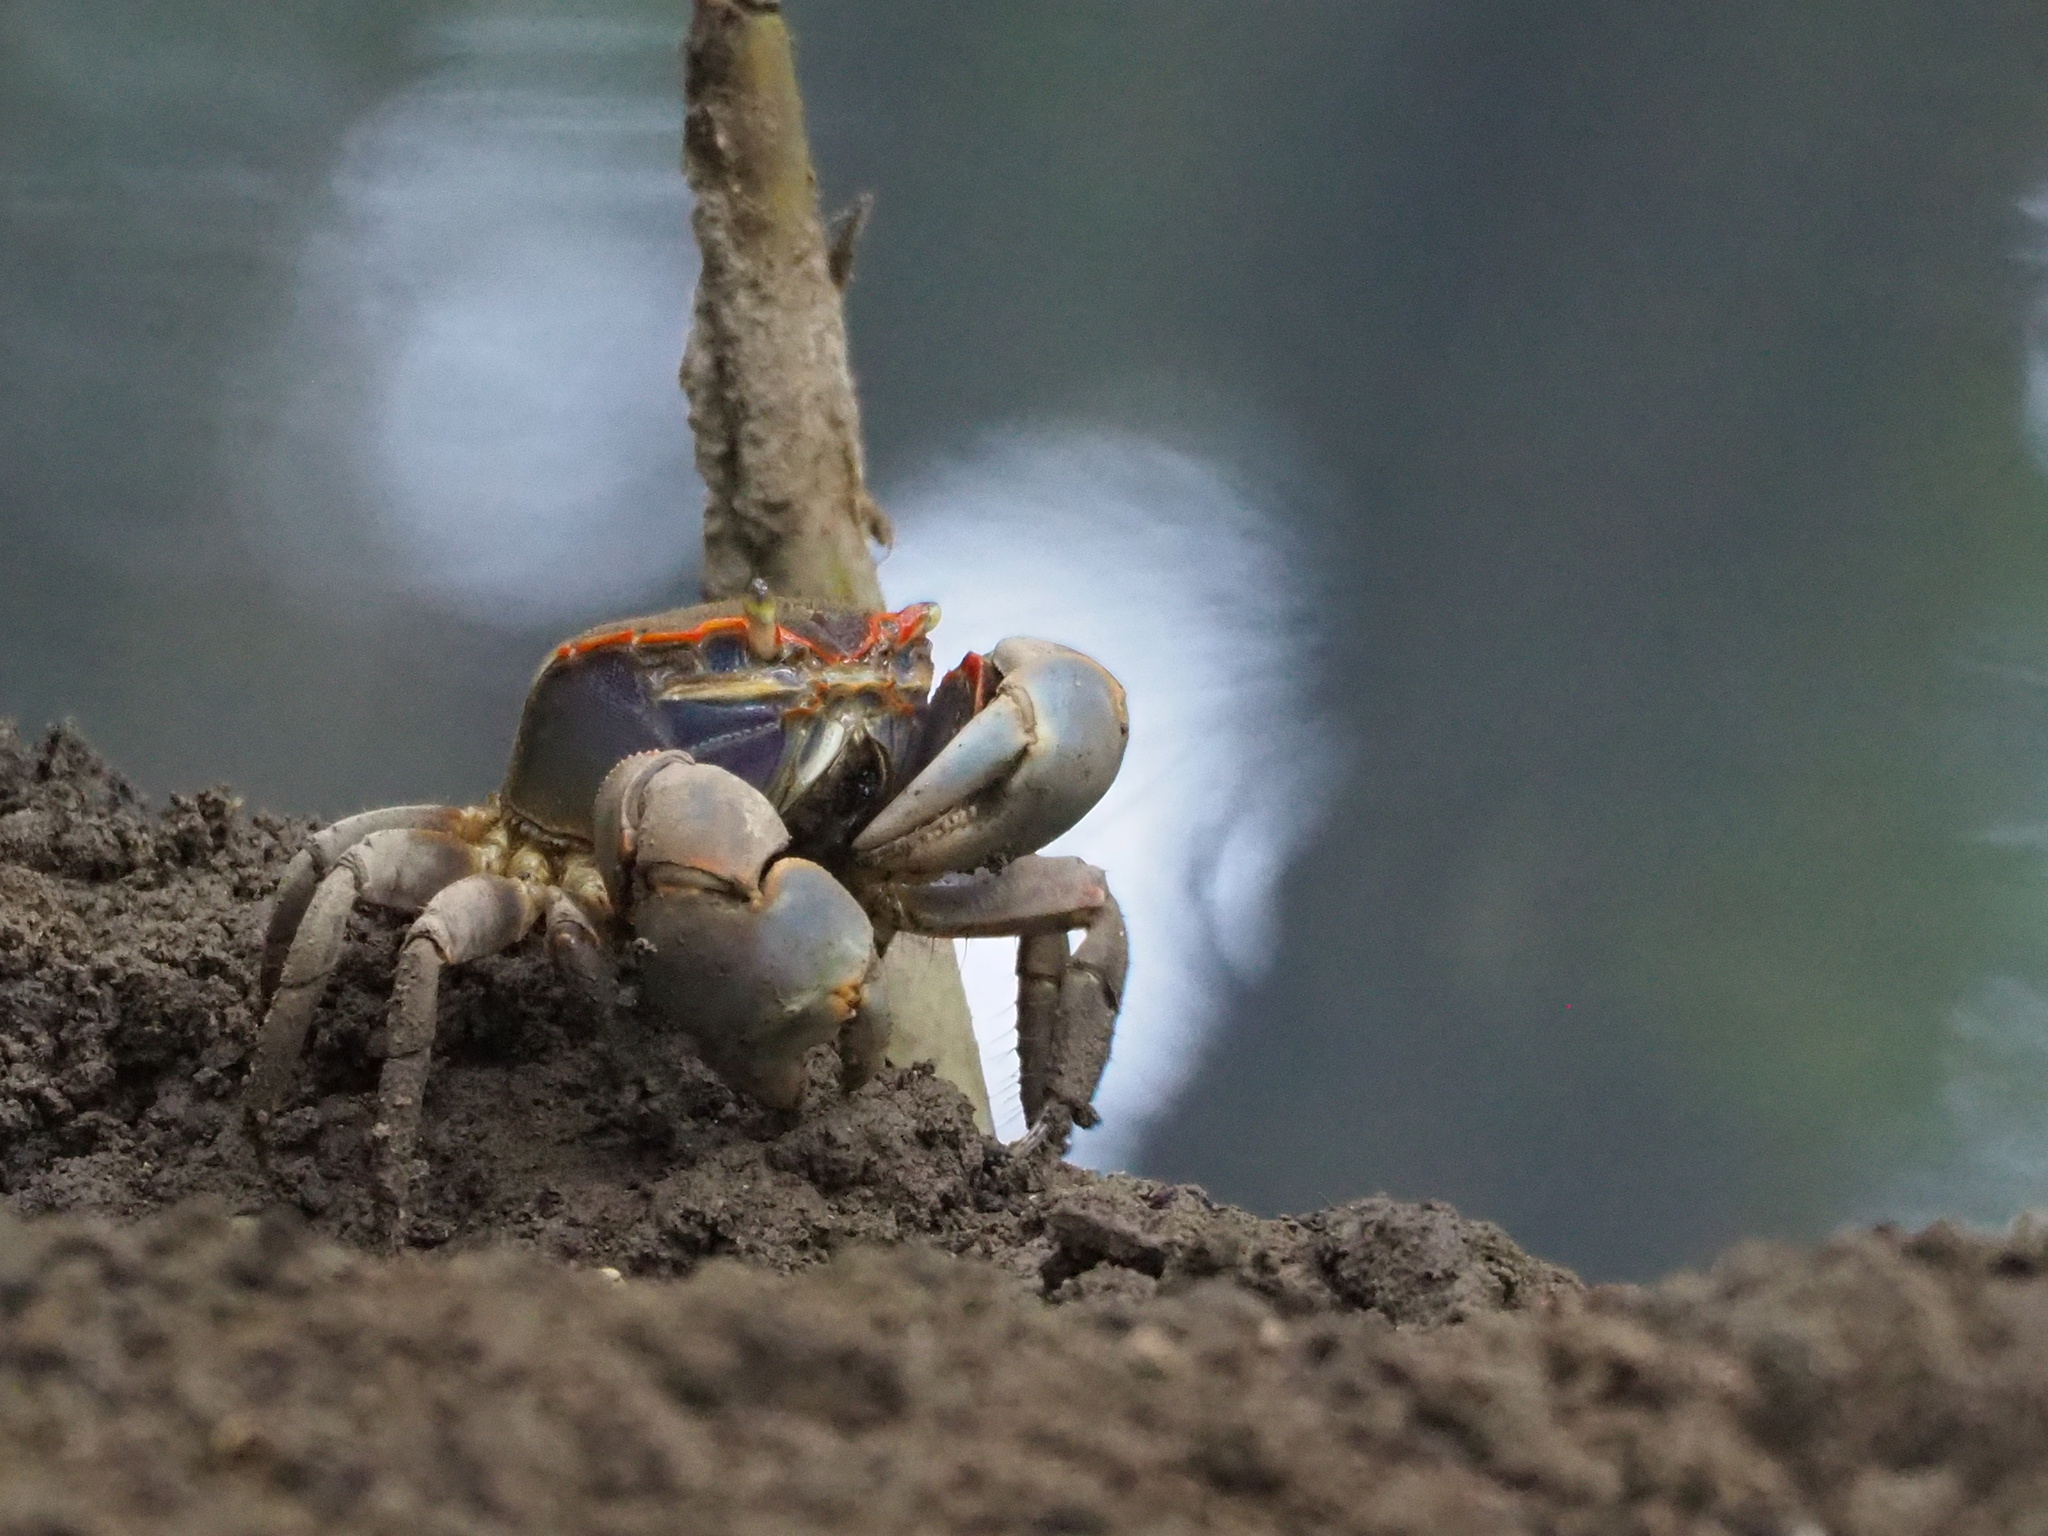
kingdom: Animalia
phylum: Arthropoda
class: Malacostraca
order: Decapoda
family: Varunidae
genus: Chasmagnathus
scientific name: Chasmagnathus convexus
